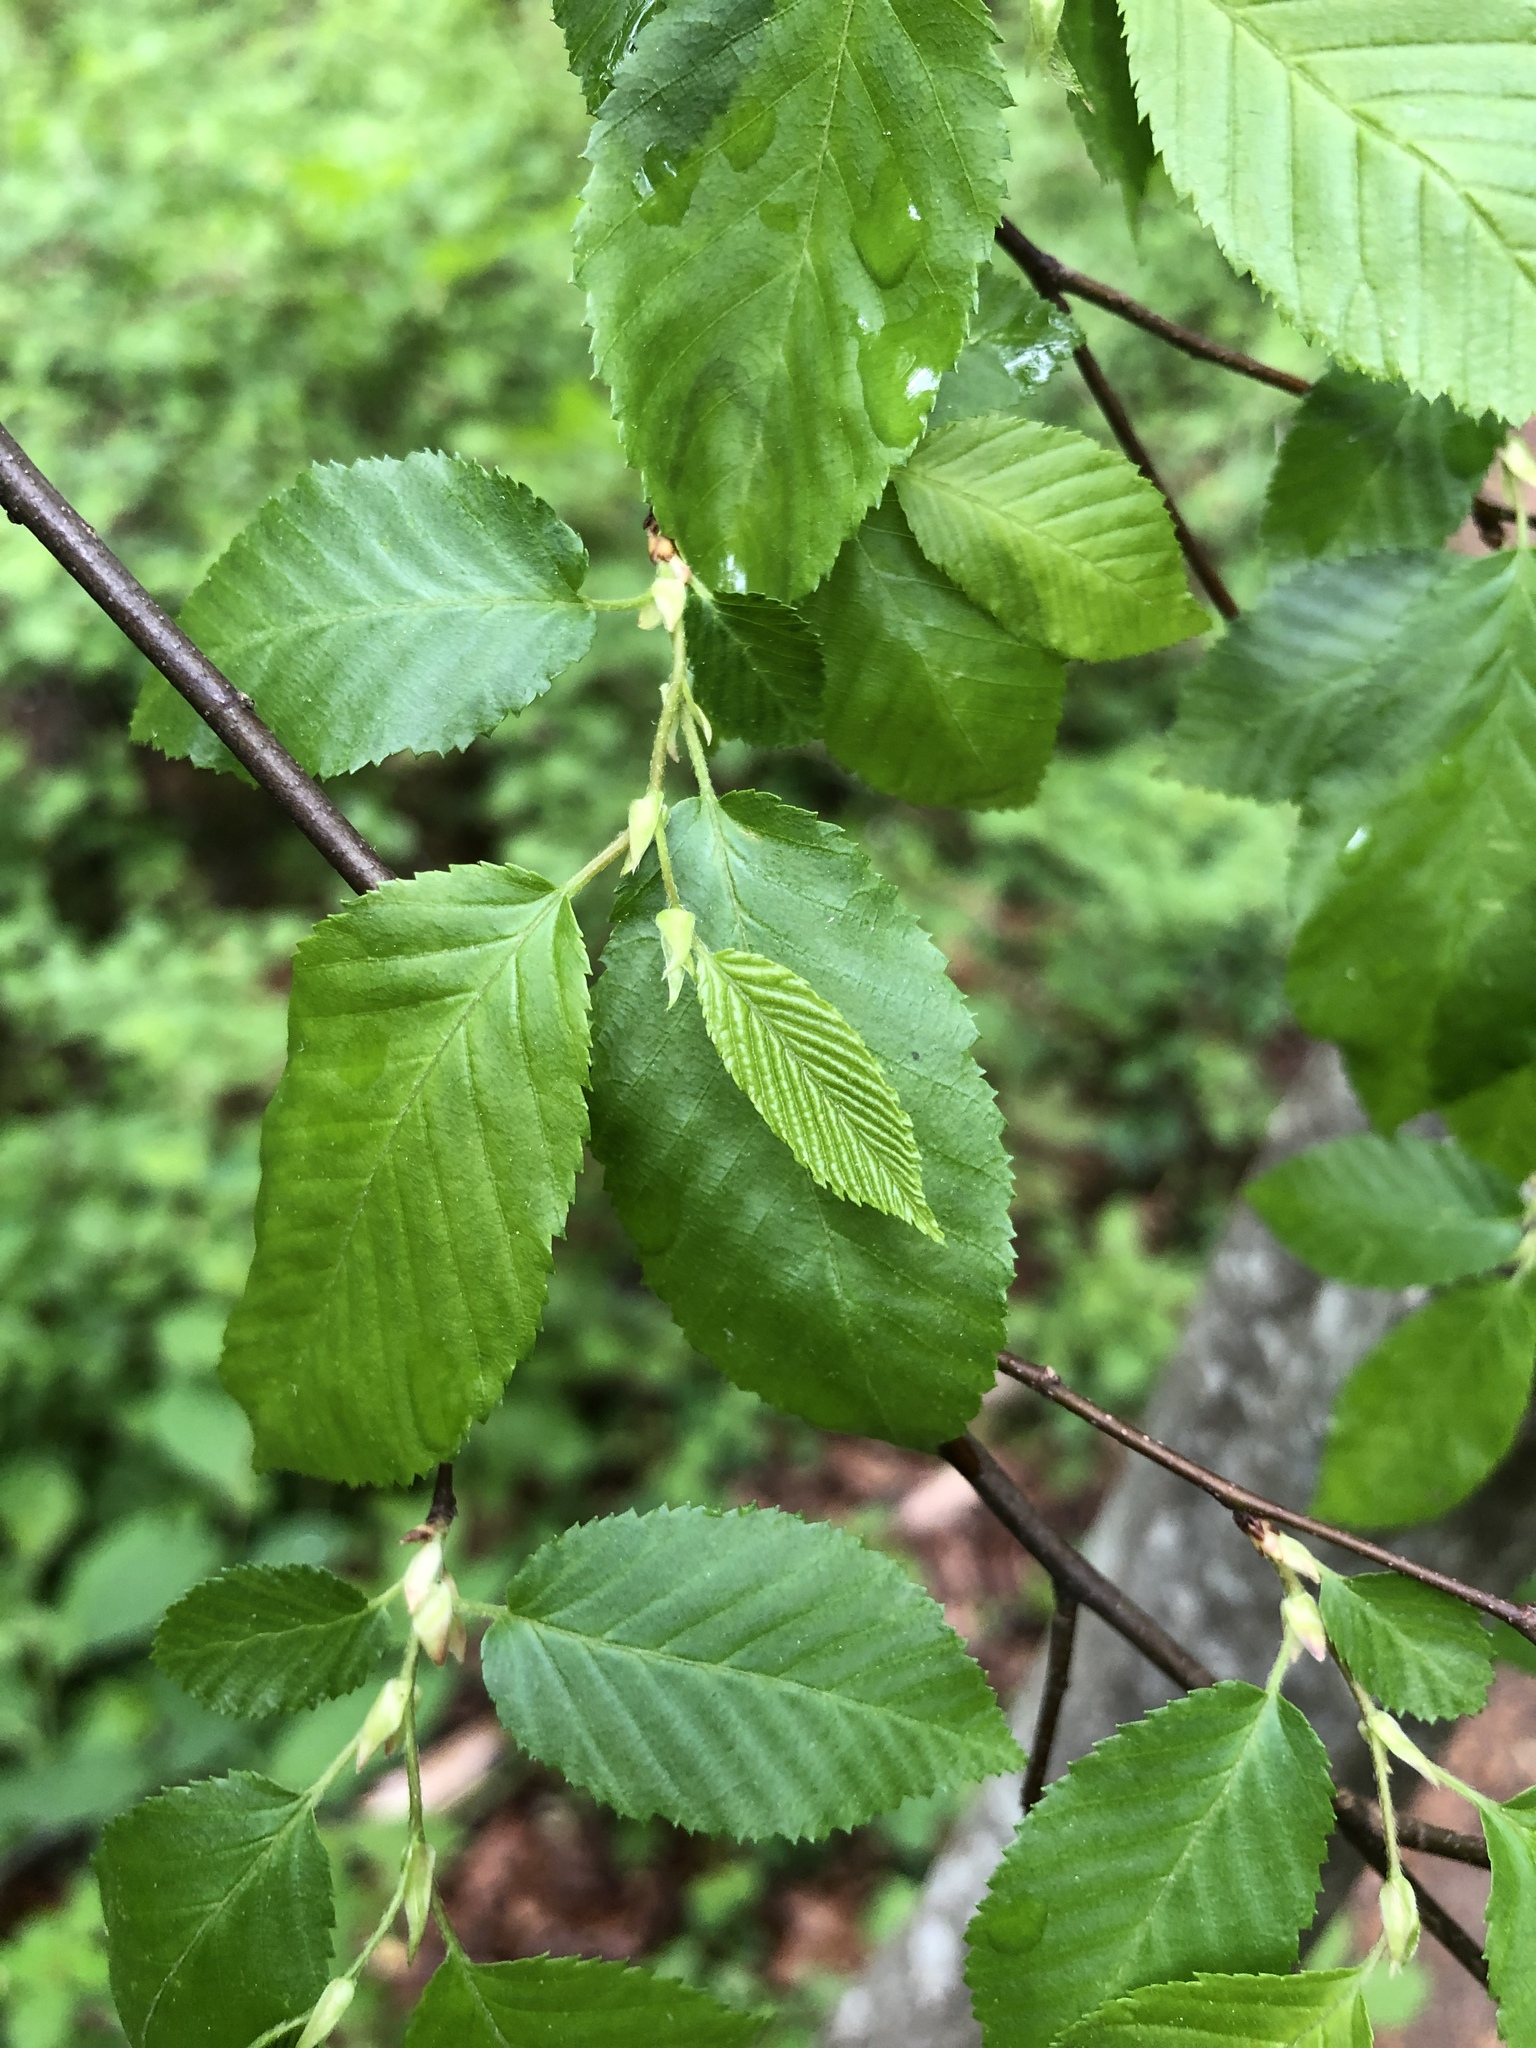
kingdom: Plantae
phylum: Tracheophyta
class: Magnoliopsida
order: Fagales
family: Betulaceae
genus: Carpinus
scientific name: Carpinus caroliniana
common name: American hornbeam
